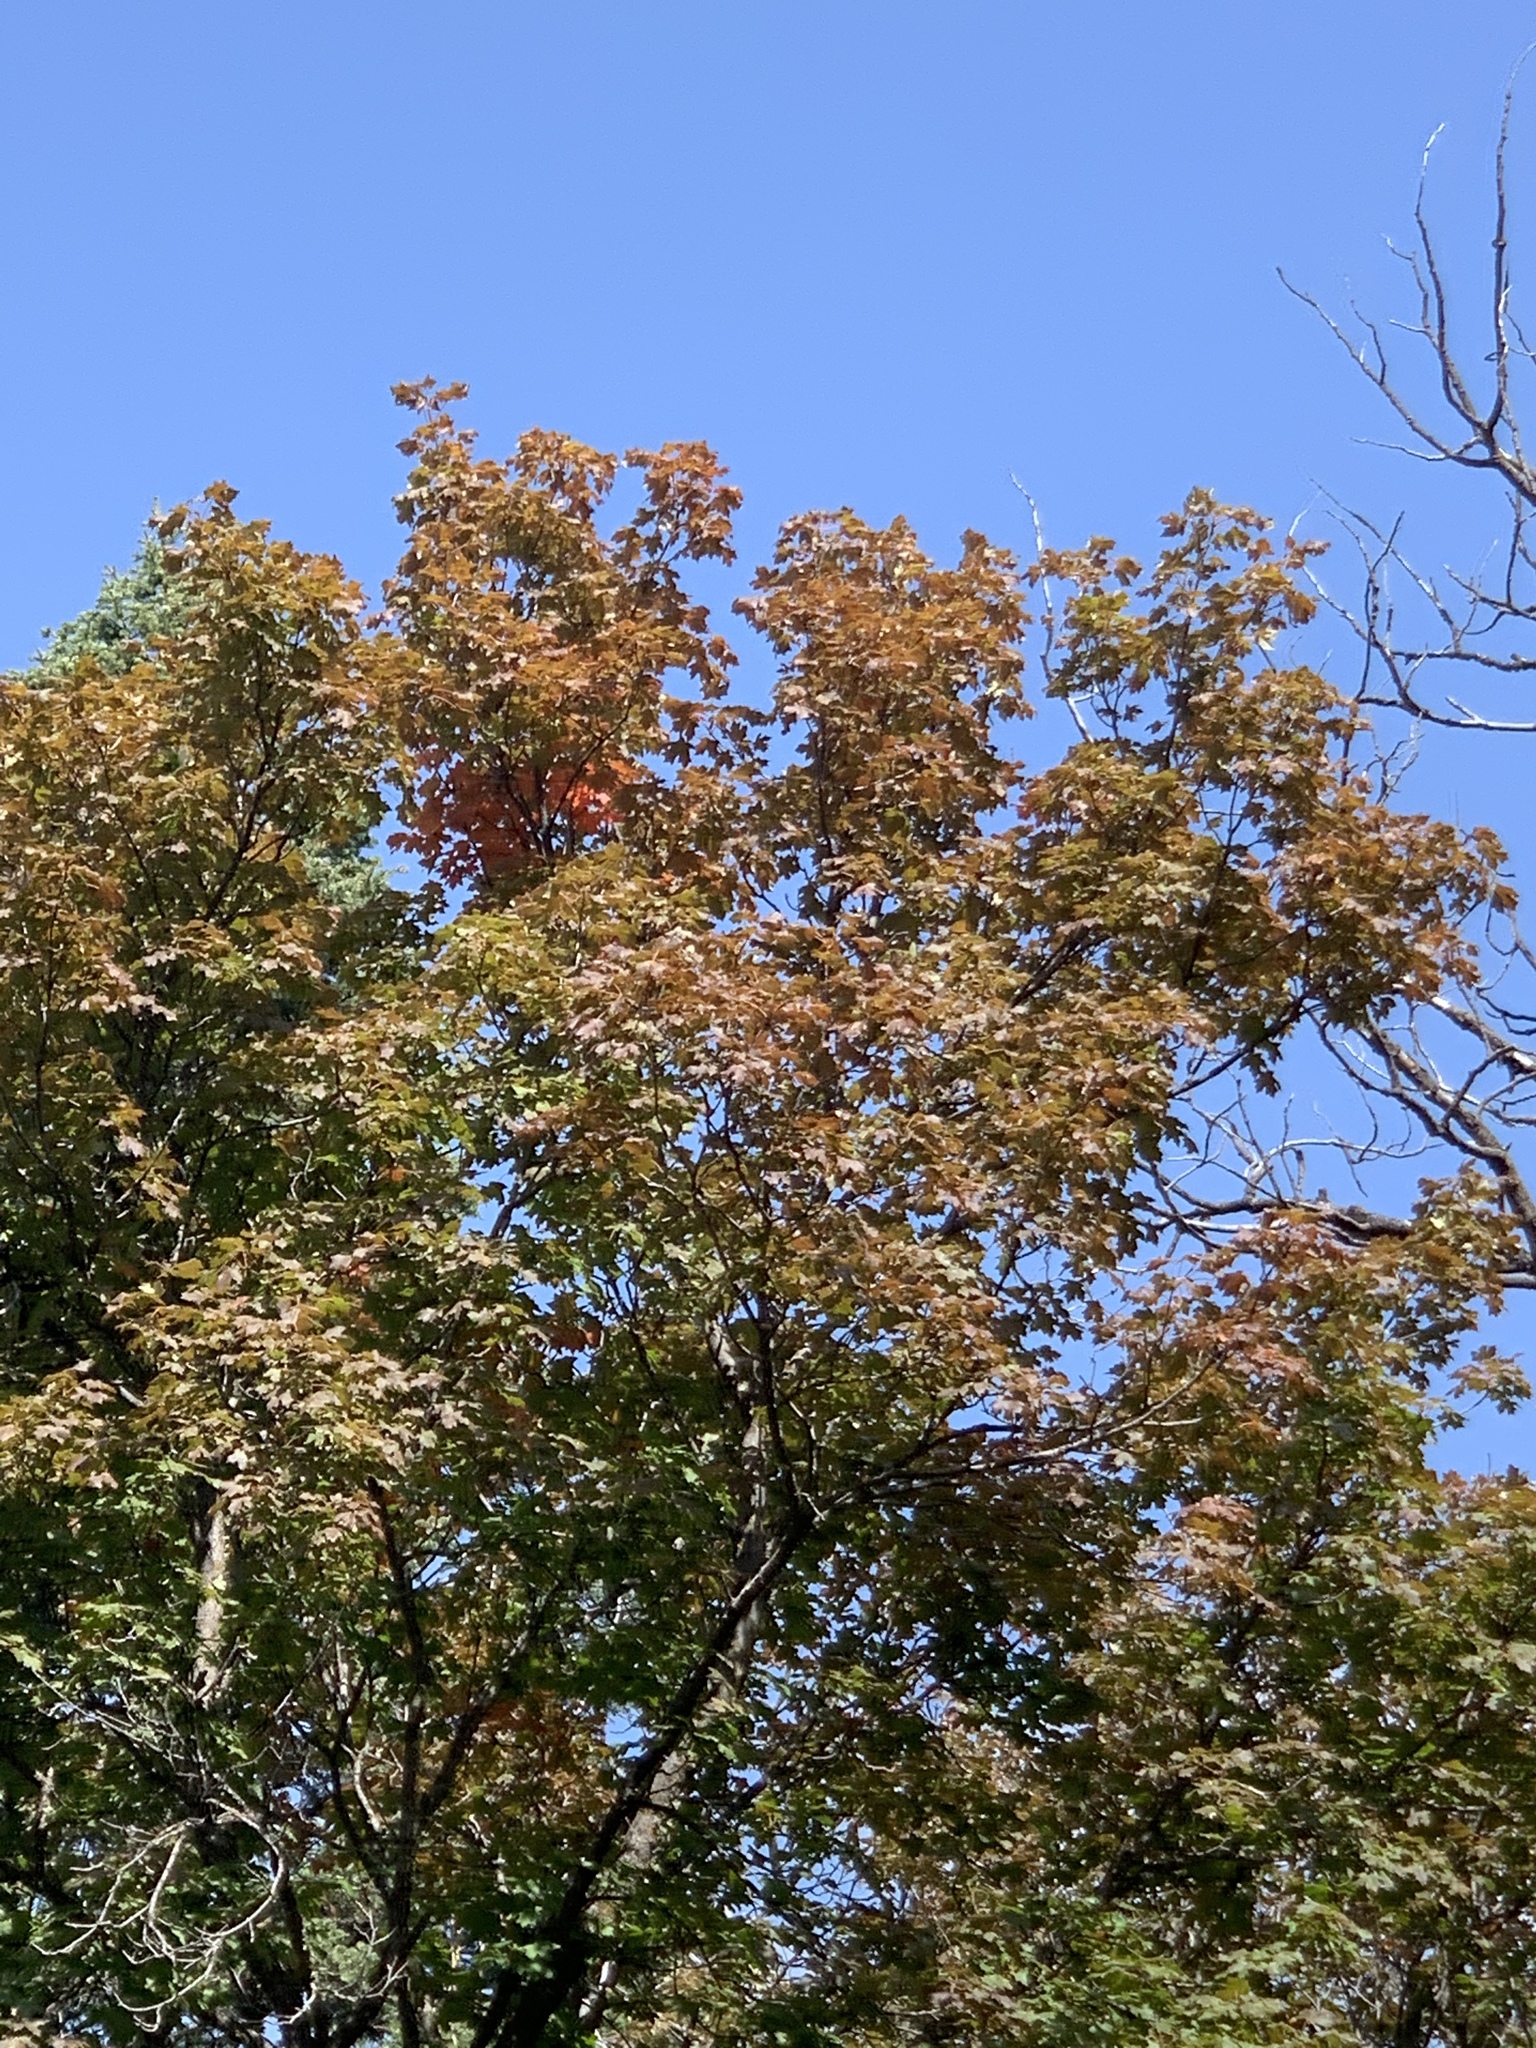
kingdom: Plantae
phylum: Tracheophyta
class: Magnoliopsida
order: Sapindales
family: Sapindaceae
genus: Acer
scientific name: Acer grandidentatum
